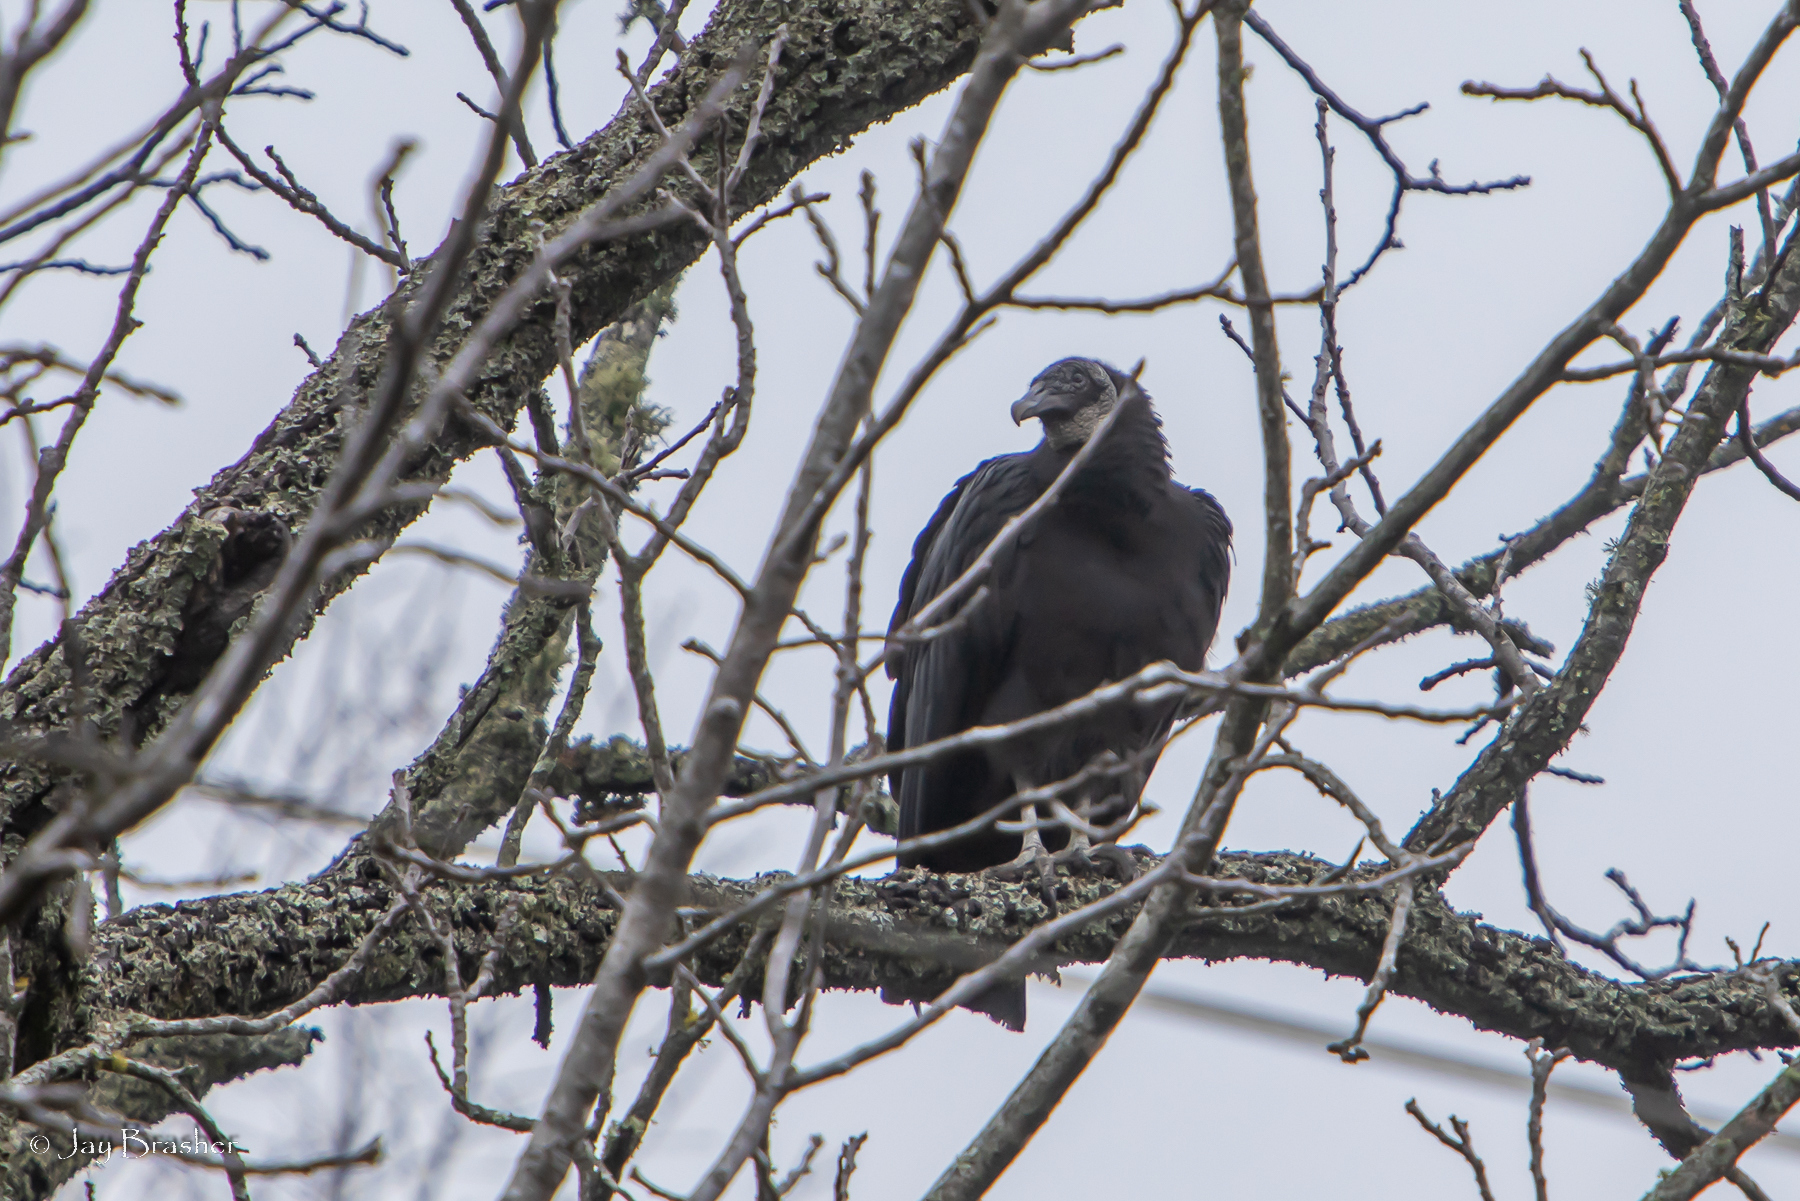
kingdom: Animalia
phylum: Chordata
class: Aves
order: Accipitriformes
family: Cathartidae
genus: Coragyps
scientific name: Coragyps atratus
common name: Black vulture
